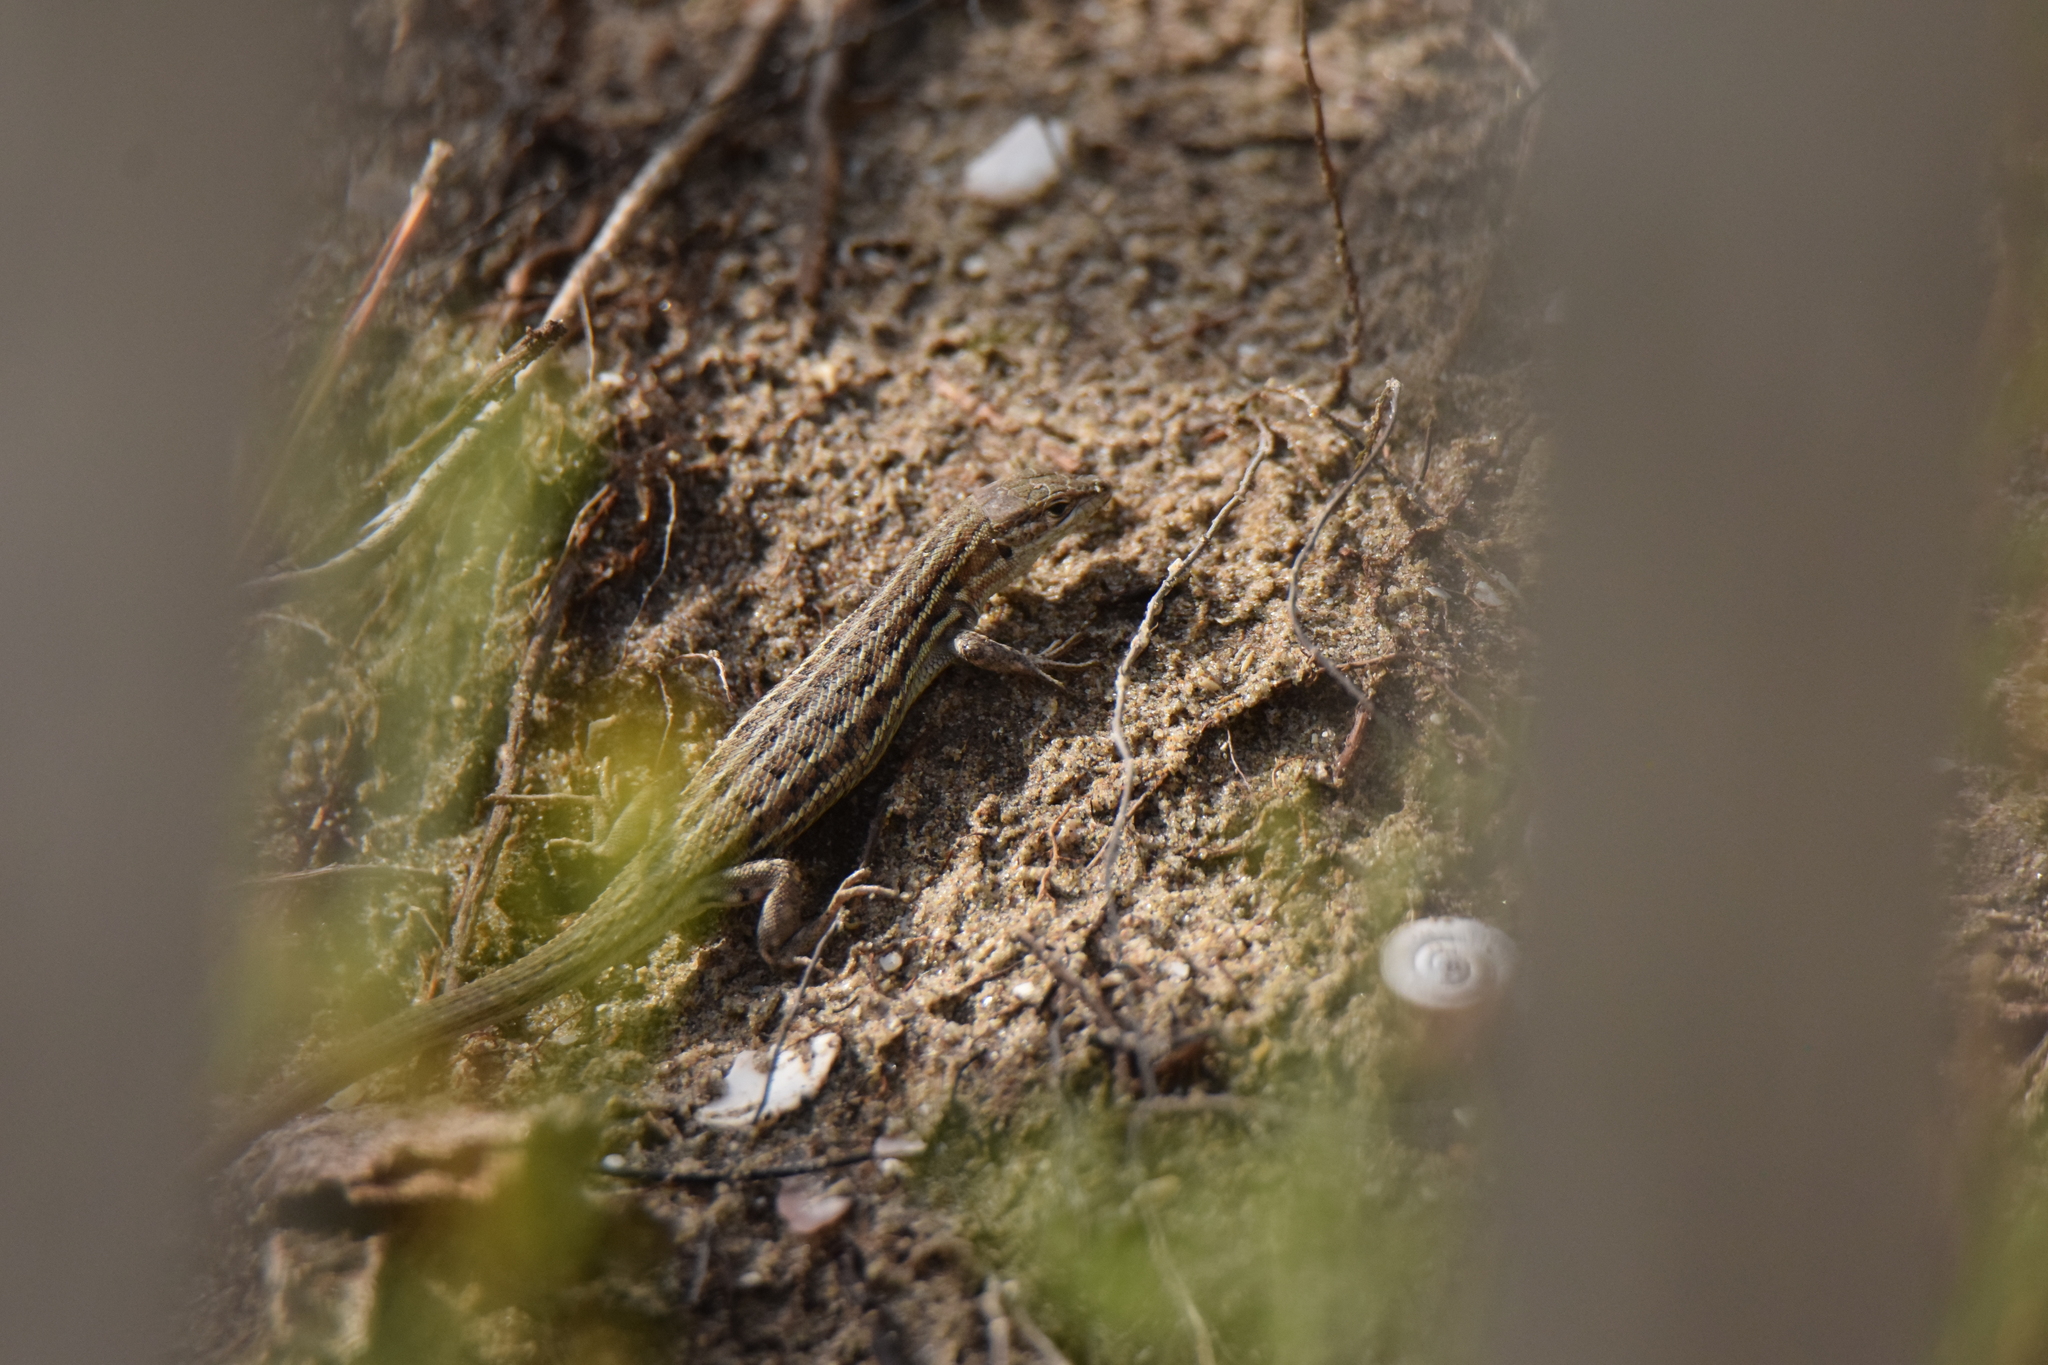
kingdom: Animalia
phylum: Chordata
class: Squamata
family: Lacertidae
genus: Psammodromus
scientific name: Psammodromus edwarsianus
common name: East iberian psammodromus
